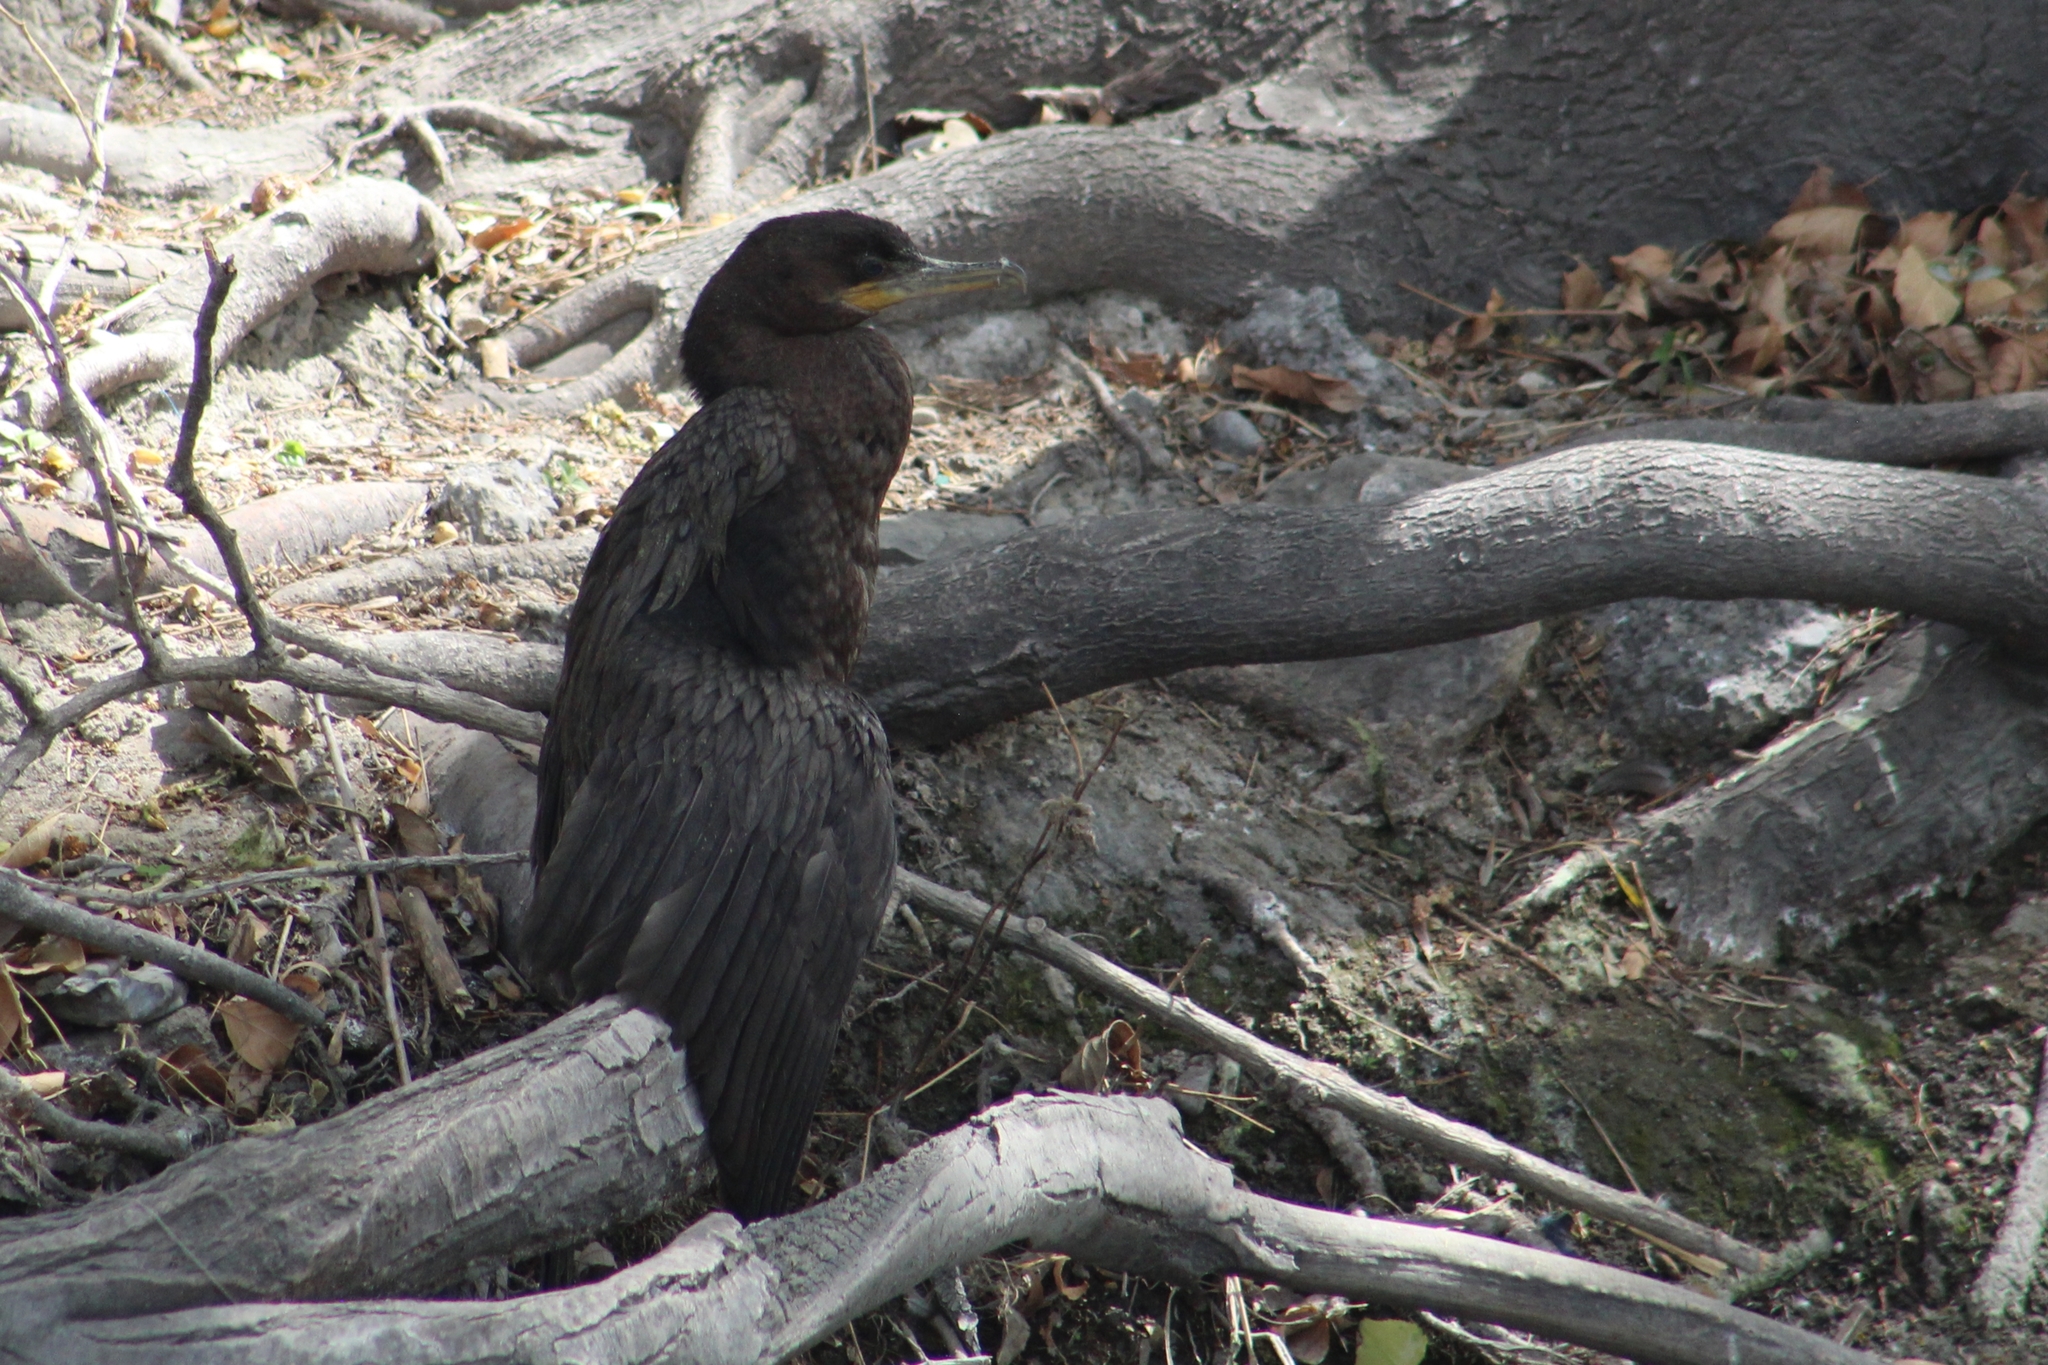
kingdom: Animalia
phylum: Chordata
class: Aves
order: Suliformes
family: Phalacrocoracidae
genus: Phalacrocorax
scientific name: Phalacrocorax brasilianus
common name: Neotropic cormorant
